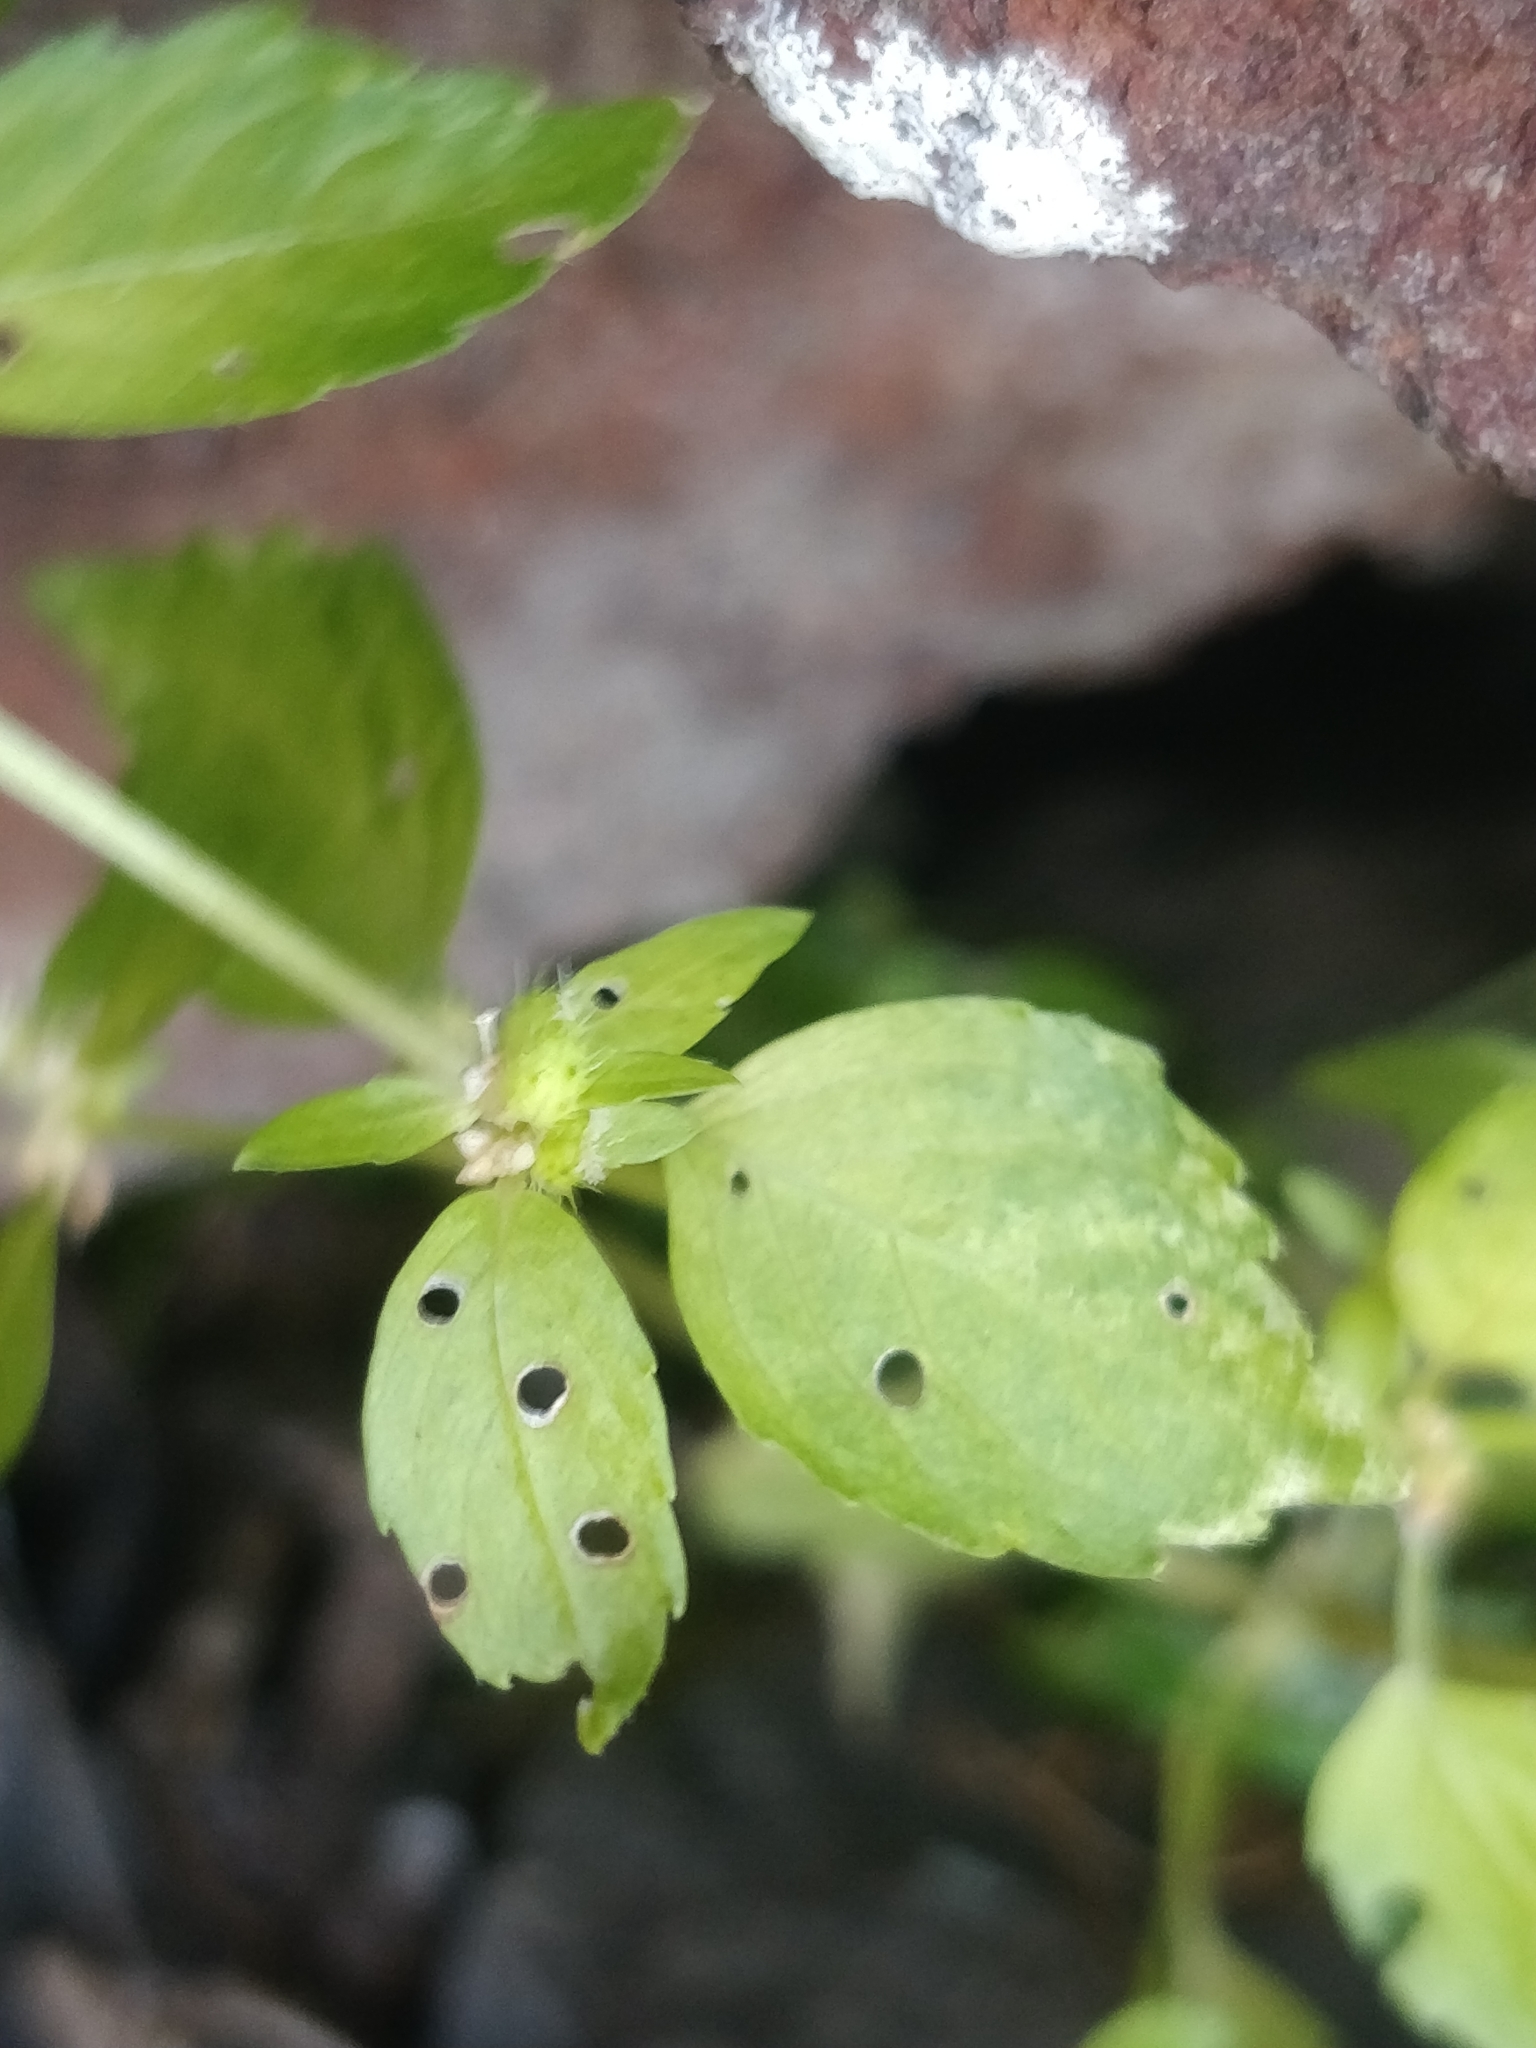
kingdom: Plantae
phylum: Tracheophyta
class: Magnoliopsida
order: Malpighiales
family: Euphorbiaceae
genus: Mercurialis
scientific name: Mercurialis annua
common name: Annual mercury
